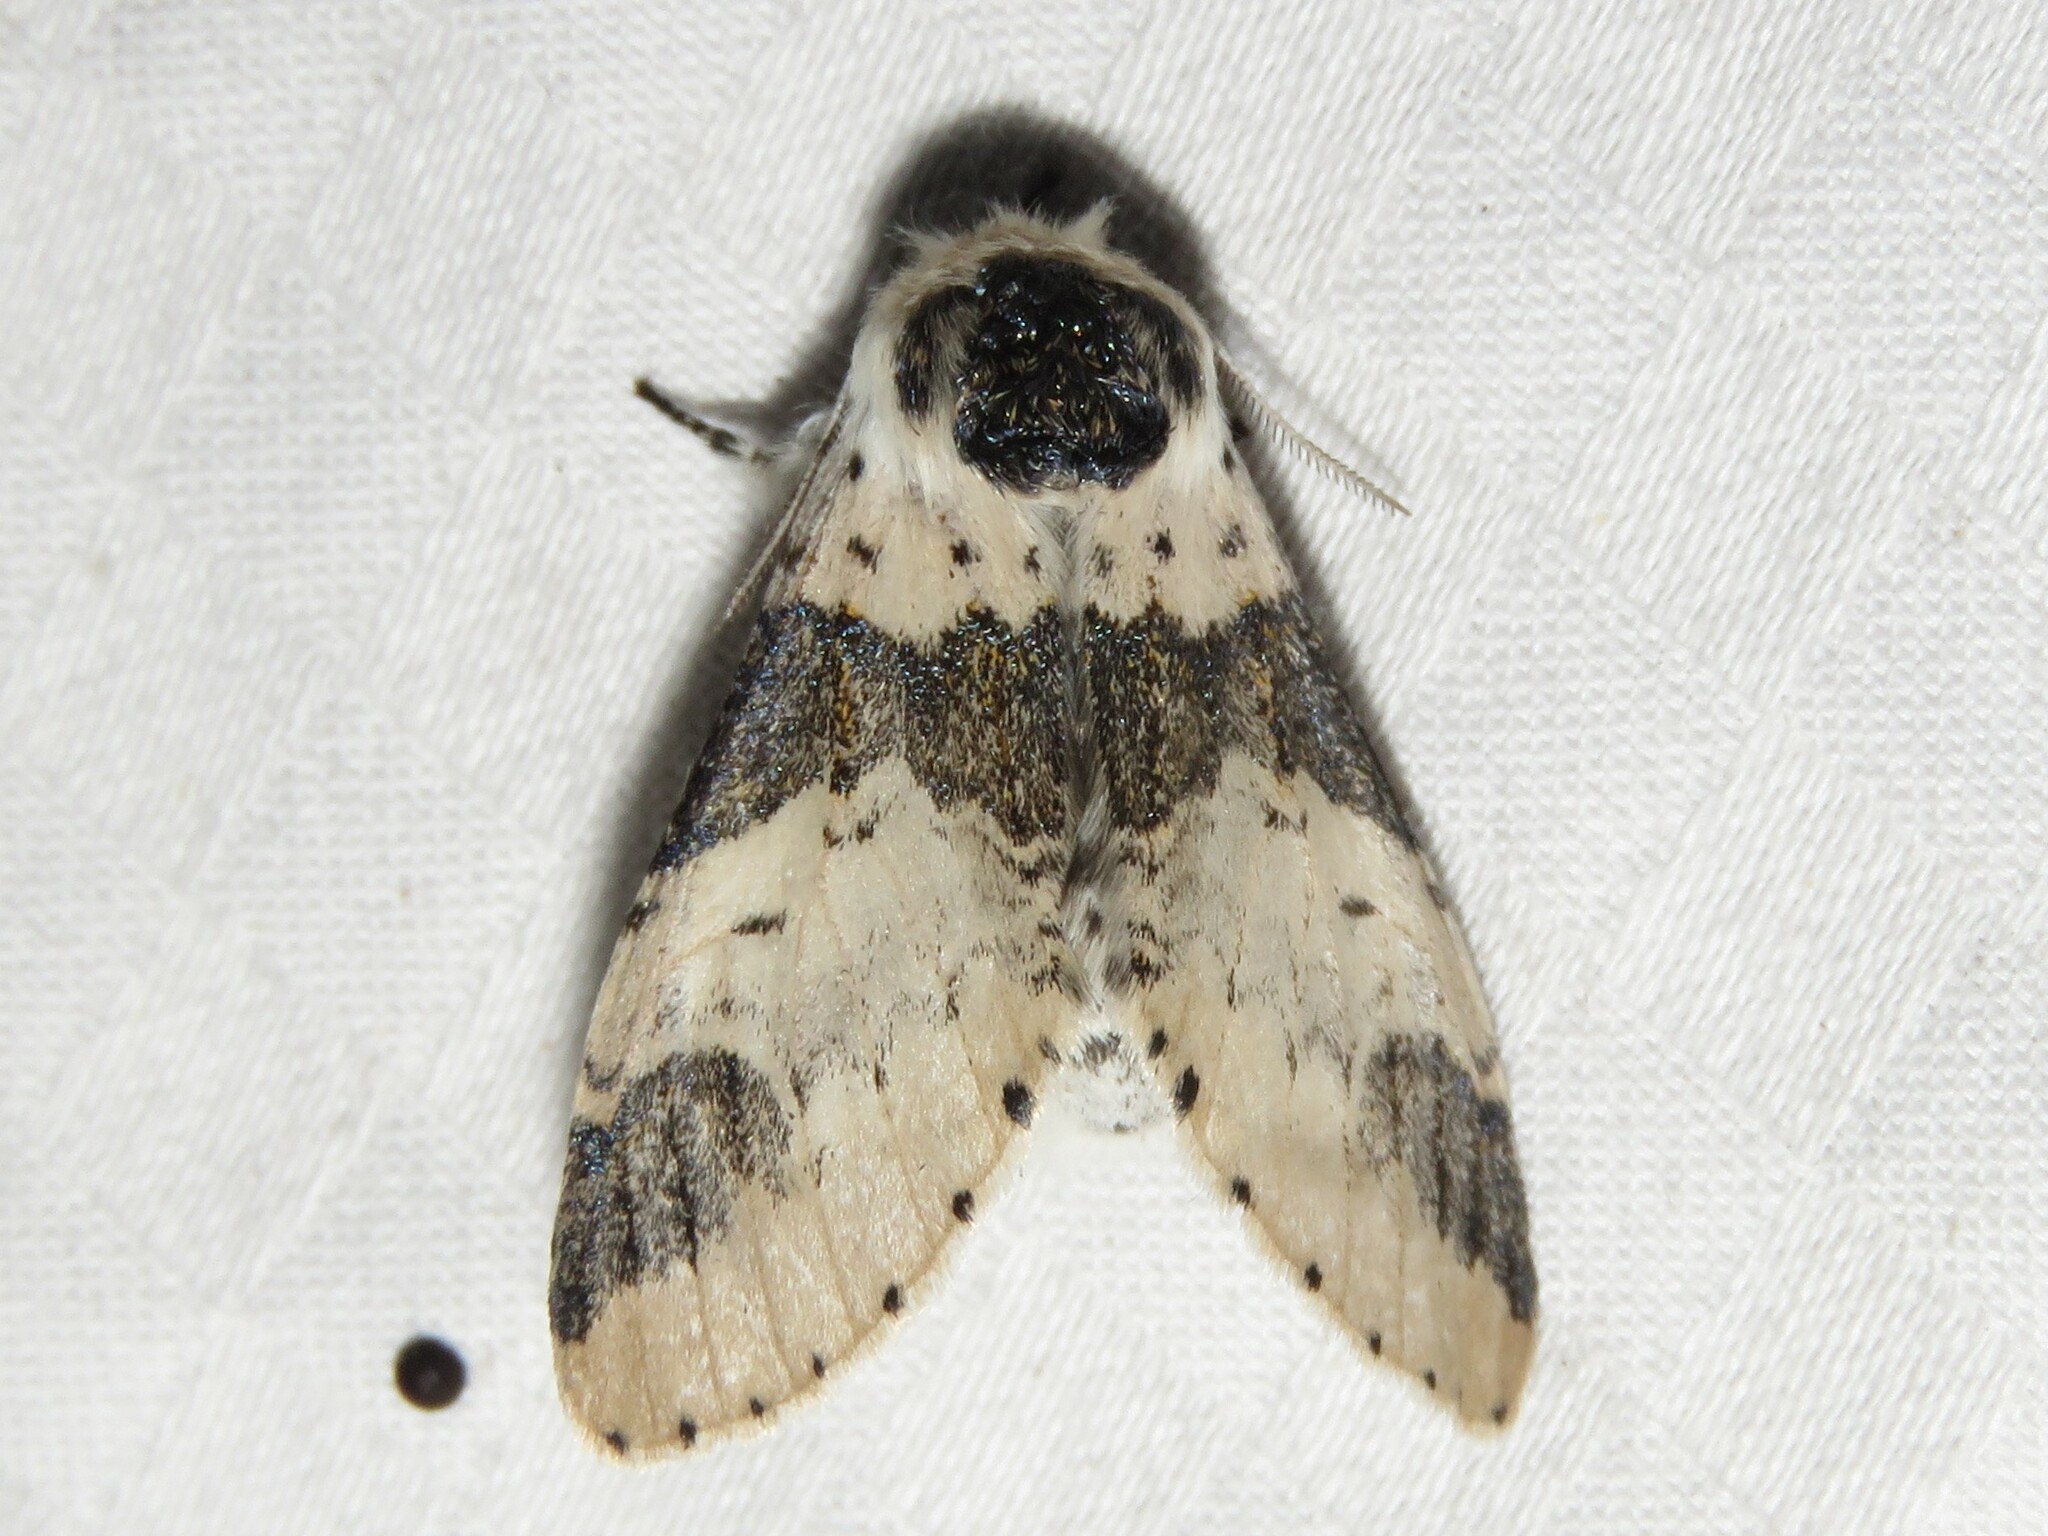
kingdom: Animalia
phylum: Arthropoda
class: Insecta
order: Lepidoptera
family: Notodontidae
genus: Furcula
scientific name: Furcula modesta
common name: Modest furcula moth
